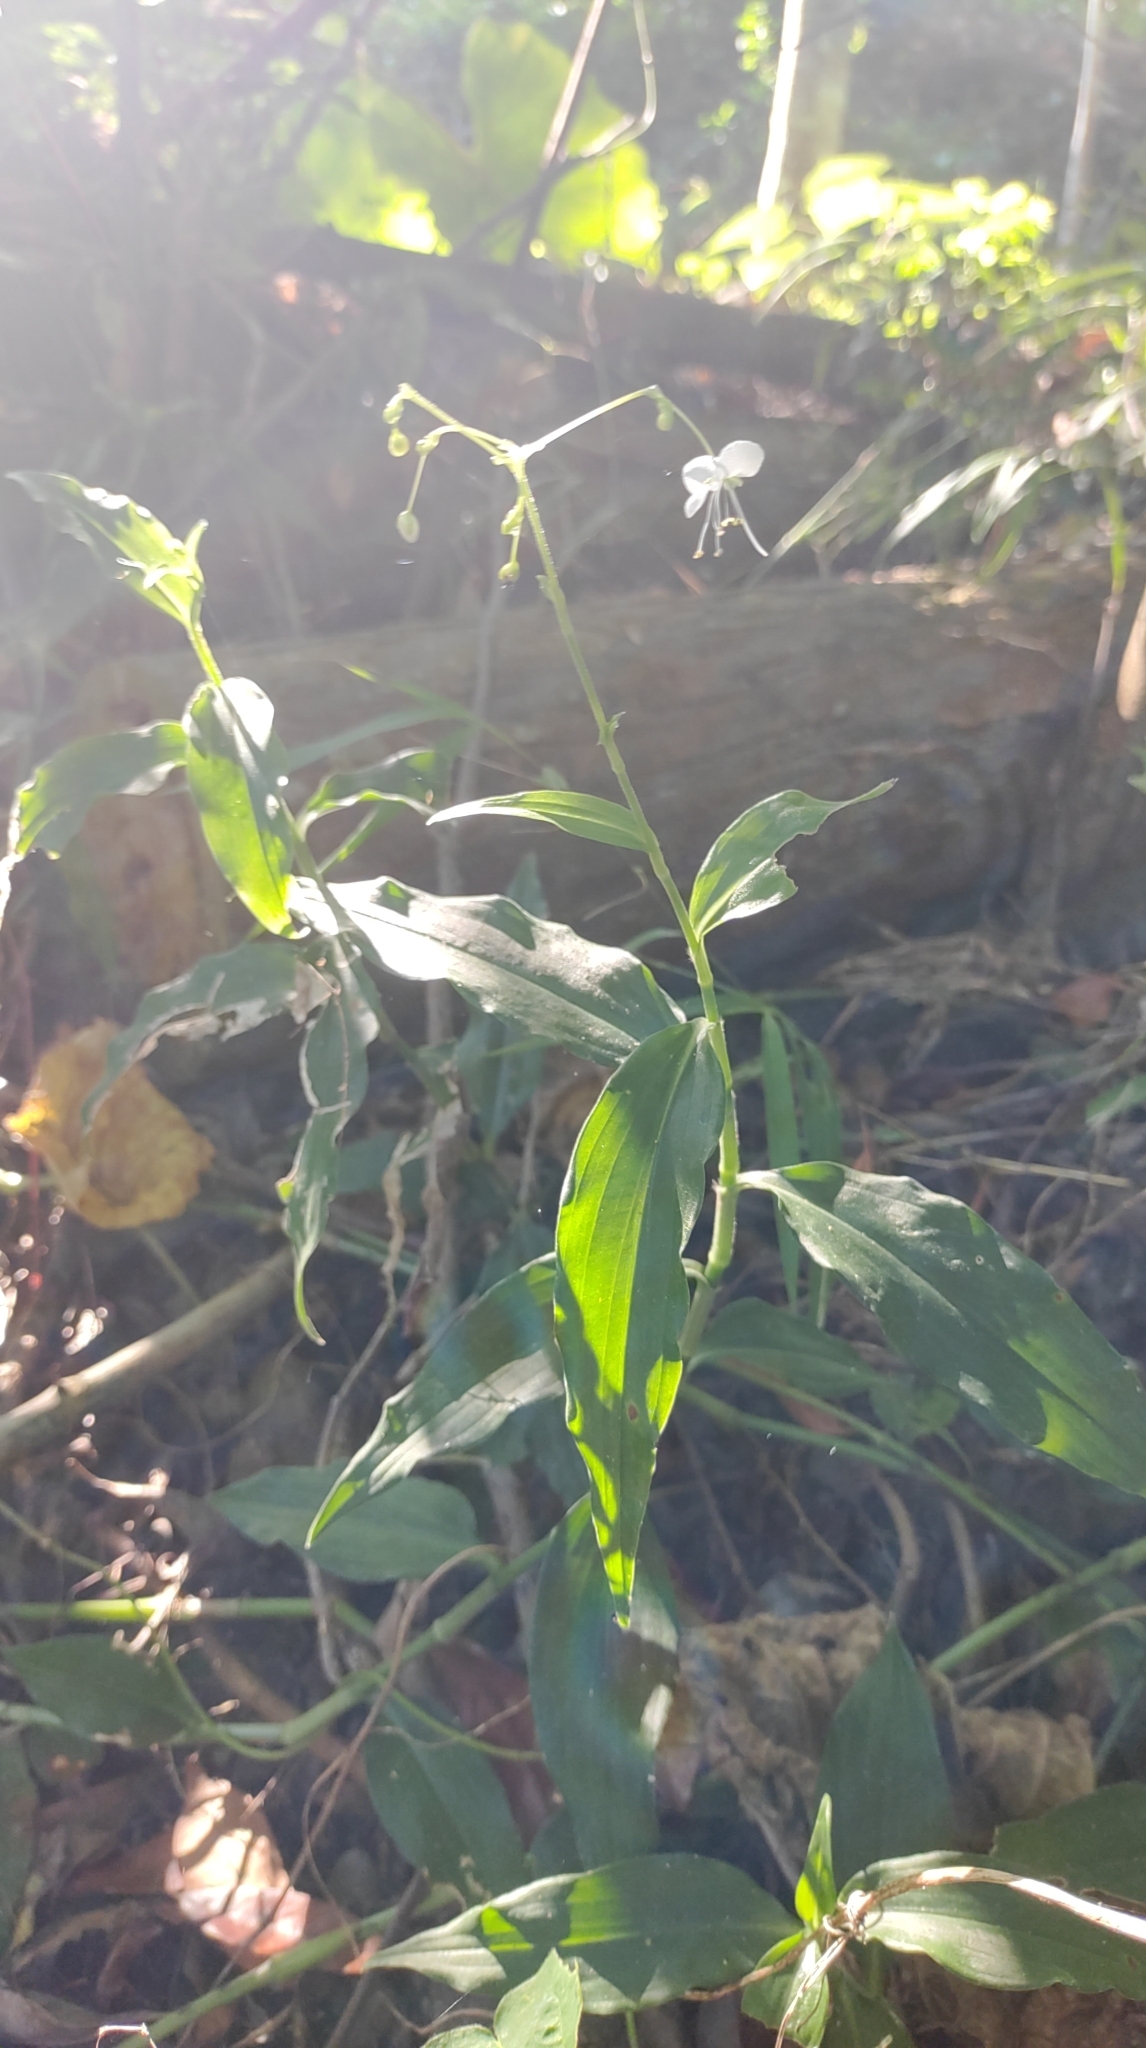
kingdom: Plantae
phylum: Tracheophyta
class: Liliopsida
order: Commelinales
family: Commelinaceae
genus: Rhopalephora
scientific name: Rhopalephora scaberrima
